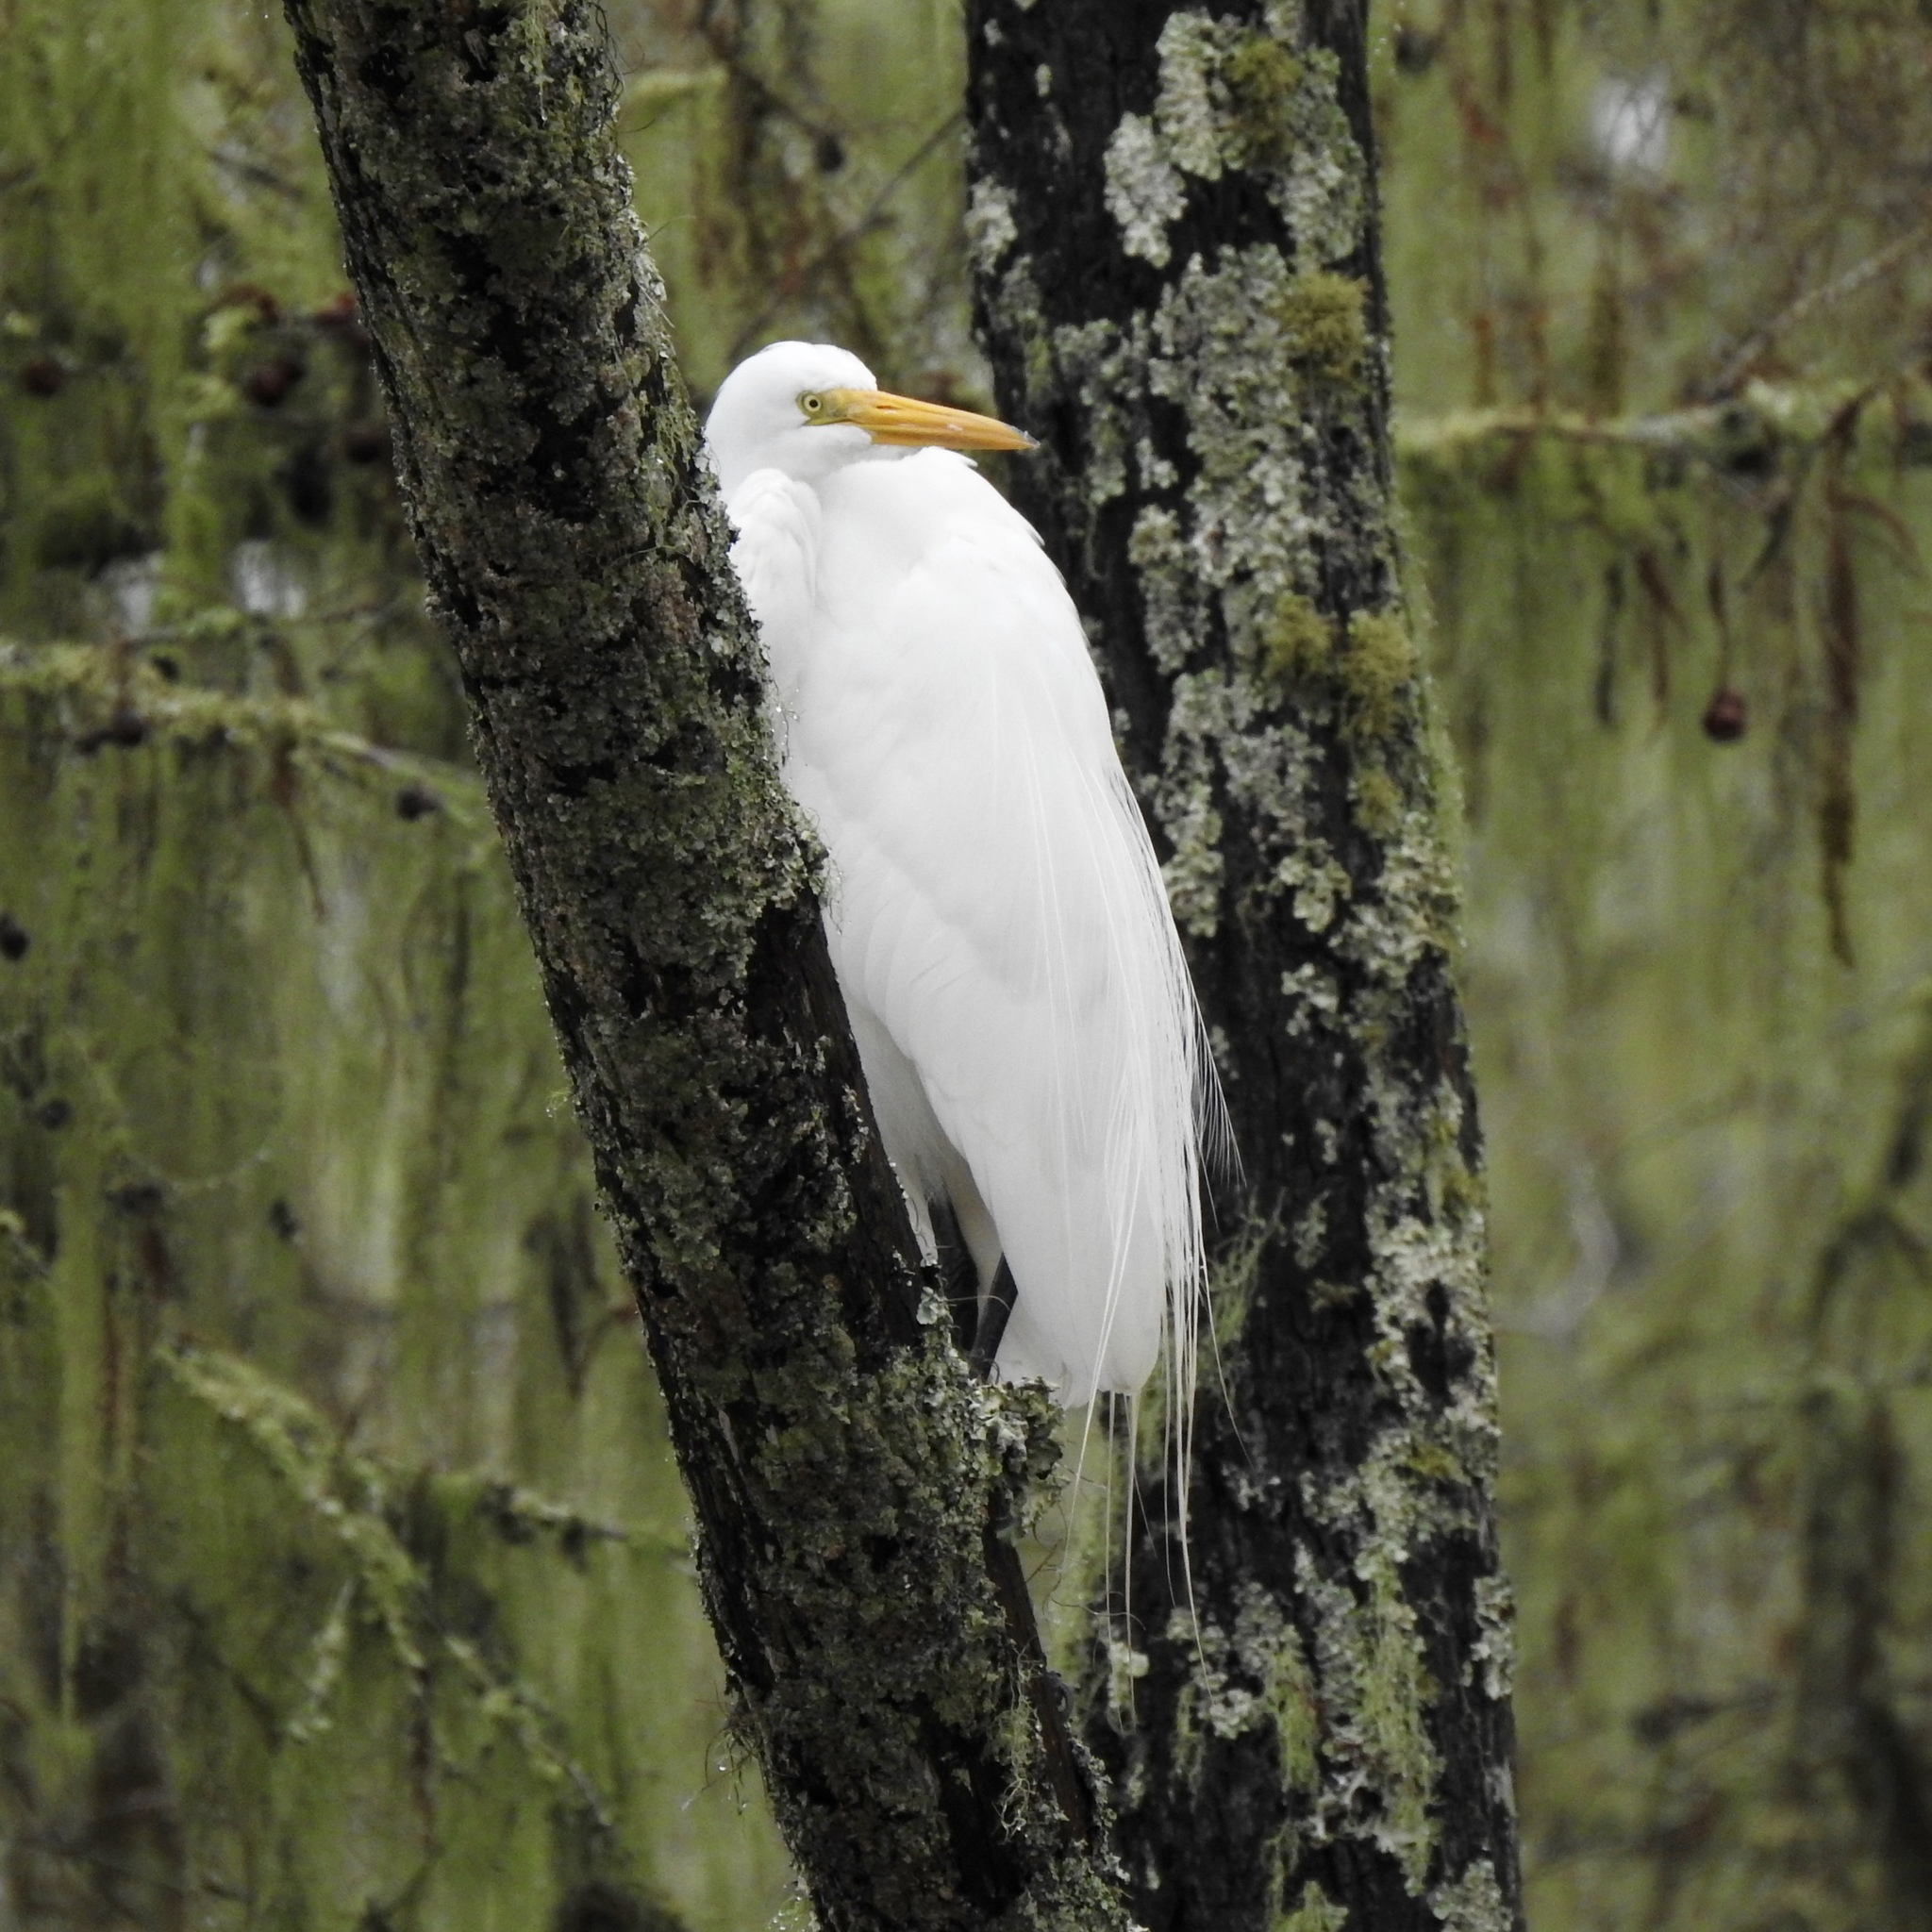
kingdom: Animalia
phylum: Chordata
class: Aves
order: Pelecaniformes
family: Ardeidae
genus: Ardea
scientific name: Ardea alba
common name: Great egret
